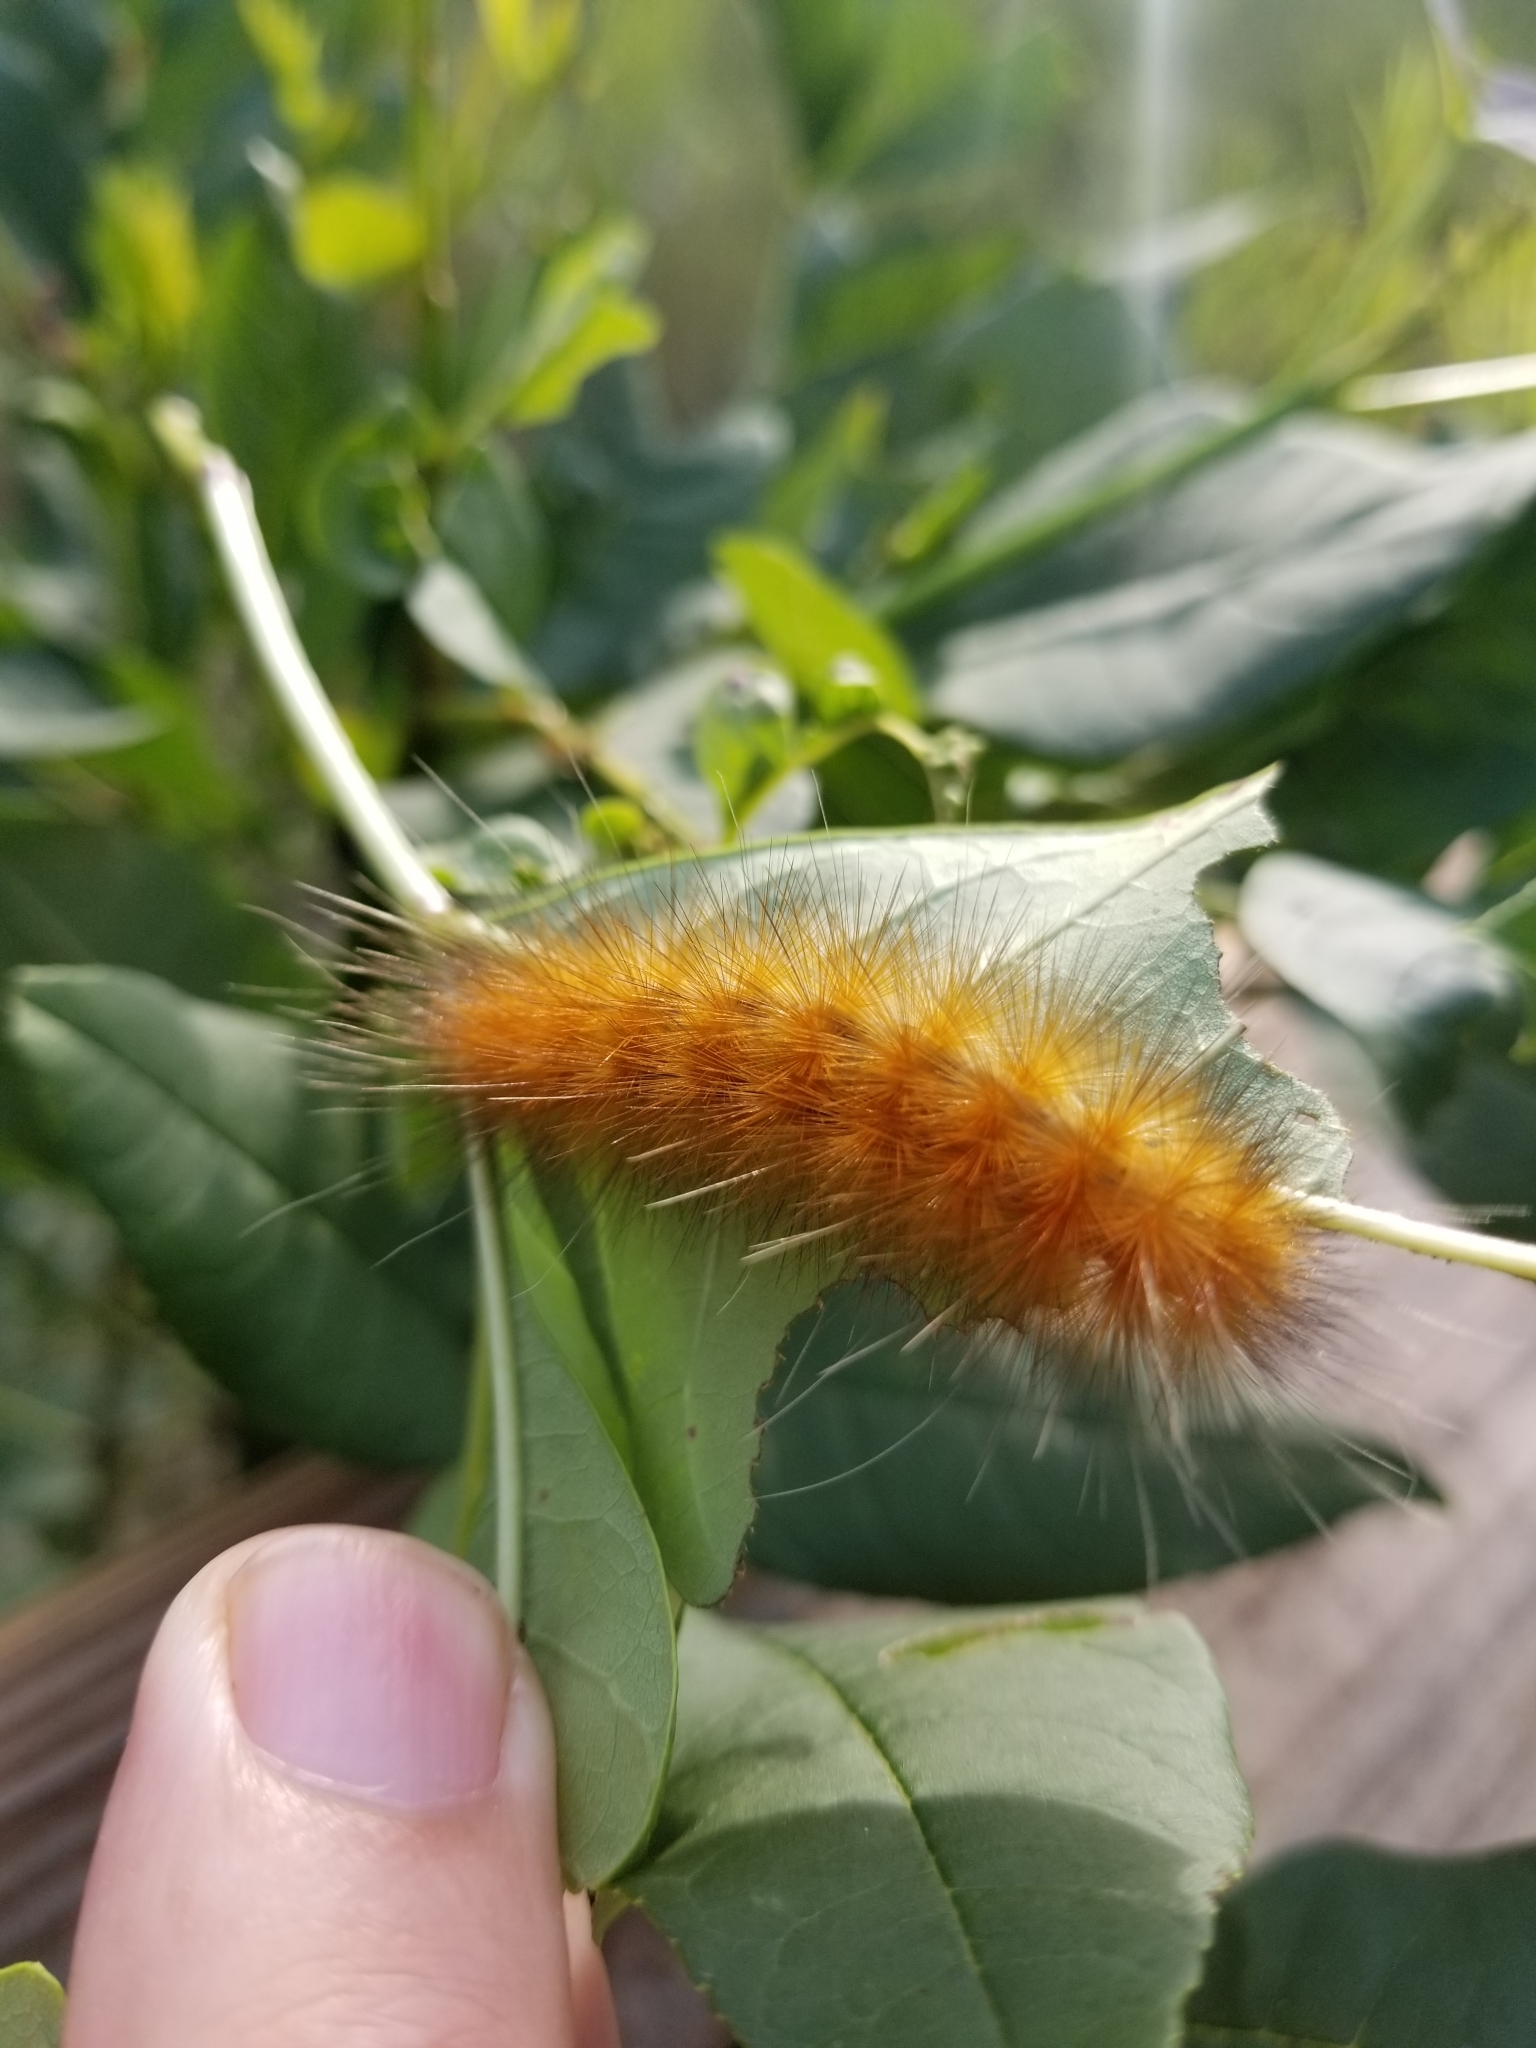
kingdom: Animalia
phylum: Arthropoda
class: Insecta
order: Lepidoptera
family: Erebidae
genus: Spilosoma
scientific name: Spilosoma virginica
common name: Virginia tiger moth
